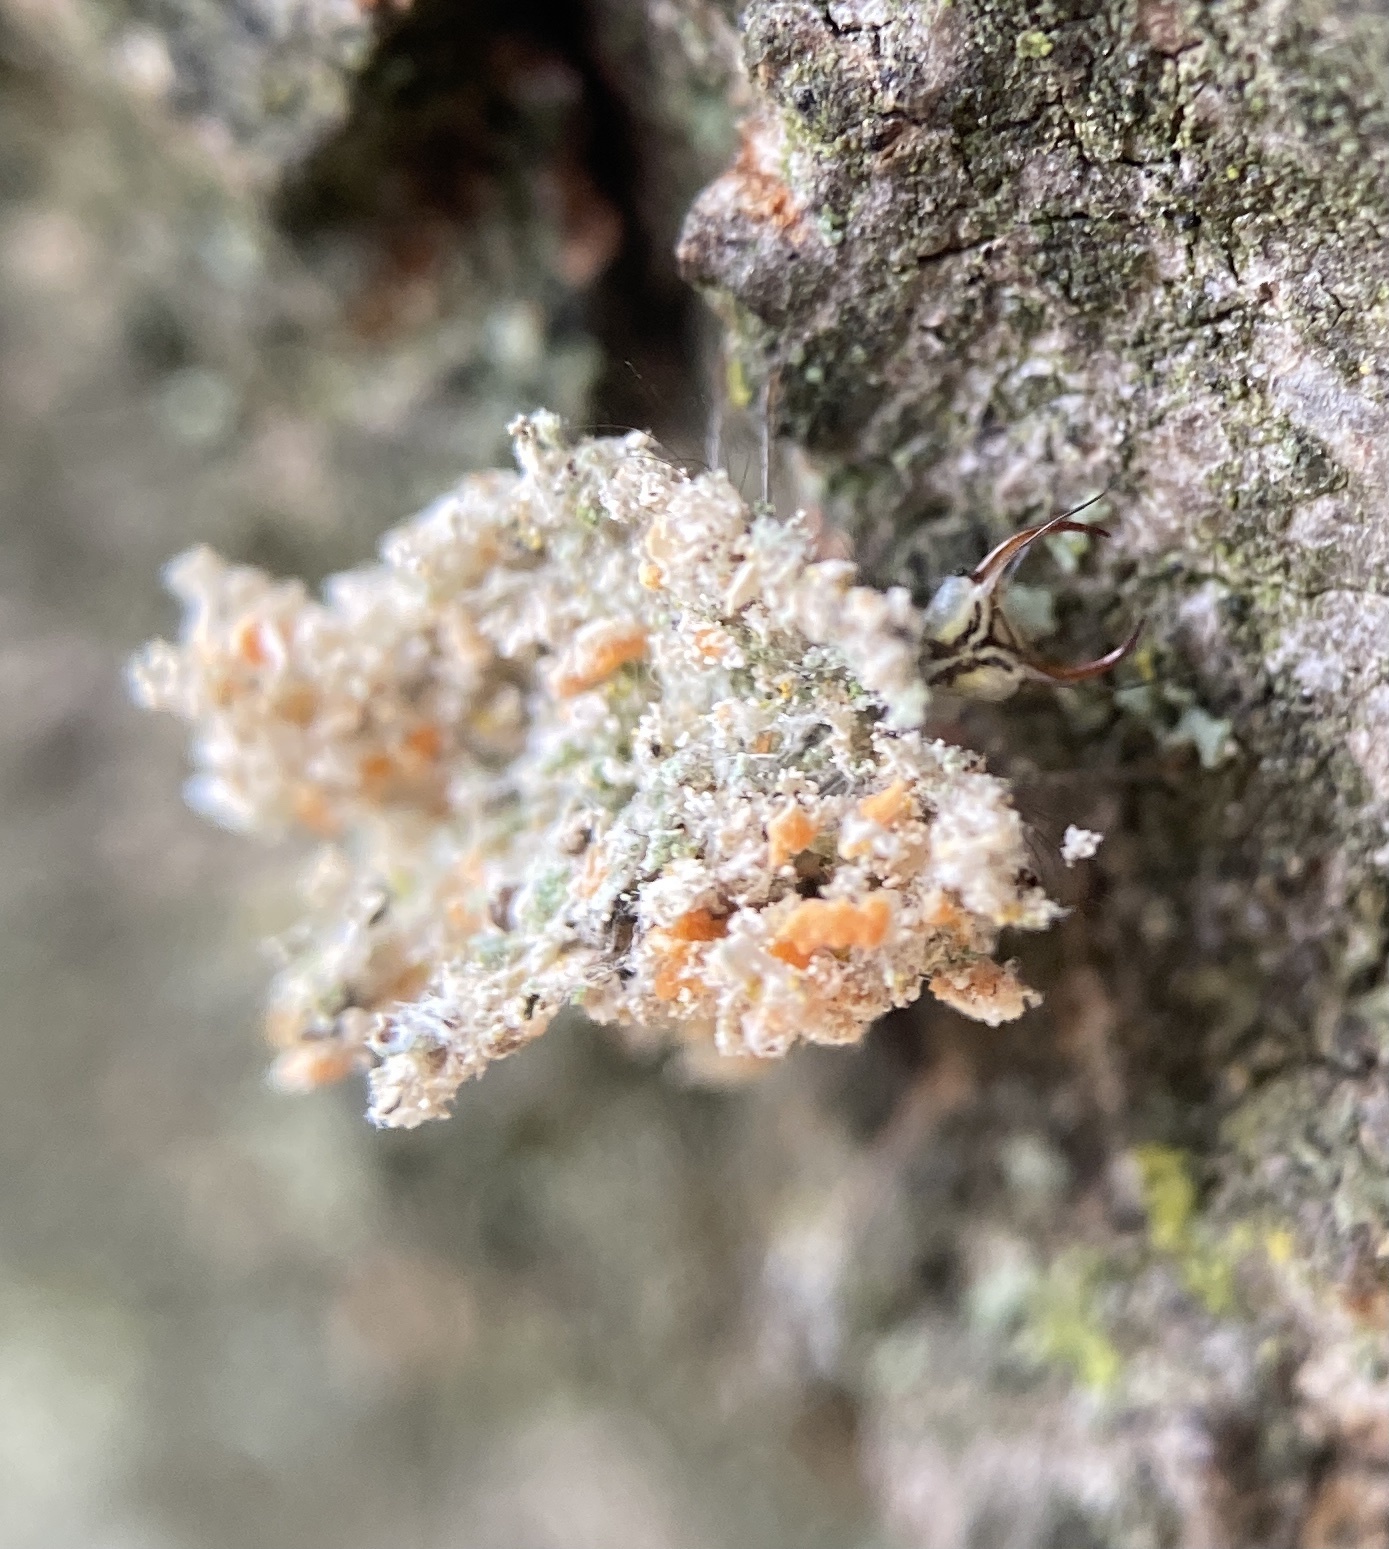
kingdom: Animalia
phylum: Arthropoda
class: Insecta
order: Neuroptera
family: Chrysopidae
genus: Leucochrysa
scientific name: Leucochrysa pavida
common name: Lichen-carrying green lacewing
